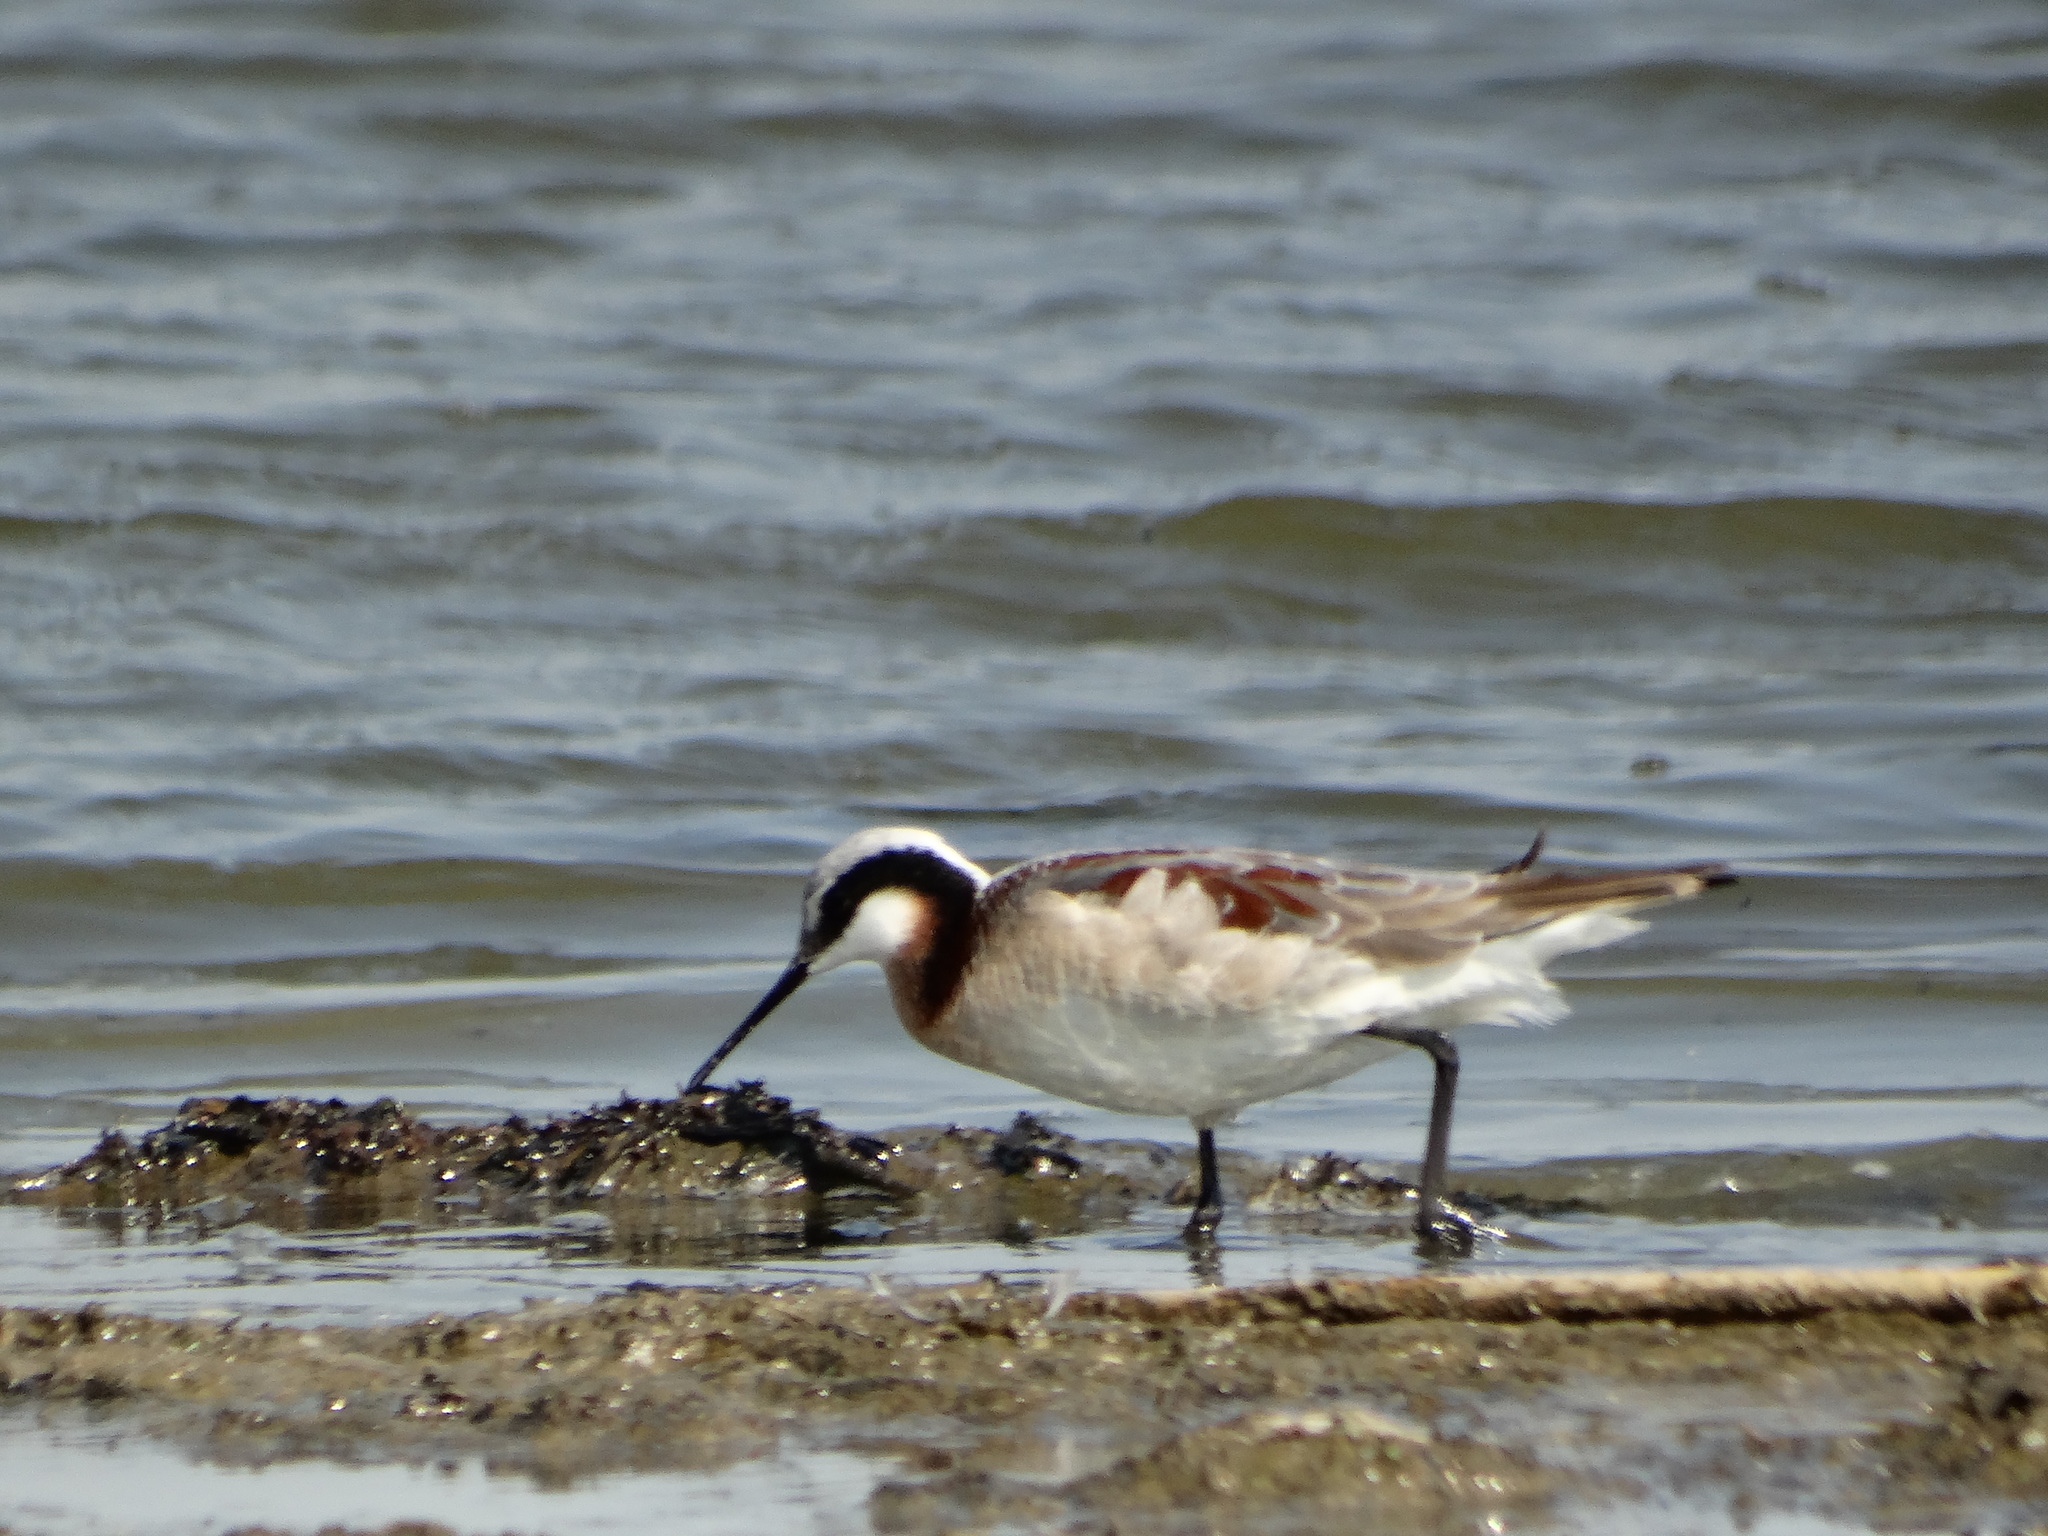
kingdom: Animalia
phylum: Chordata
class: Aves
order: Charadriiformes
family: Scolopacidae
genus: Phalaropus
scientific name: Phalaropus tricolor
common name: Wilson's phalarope
